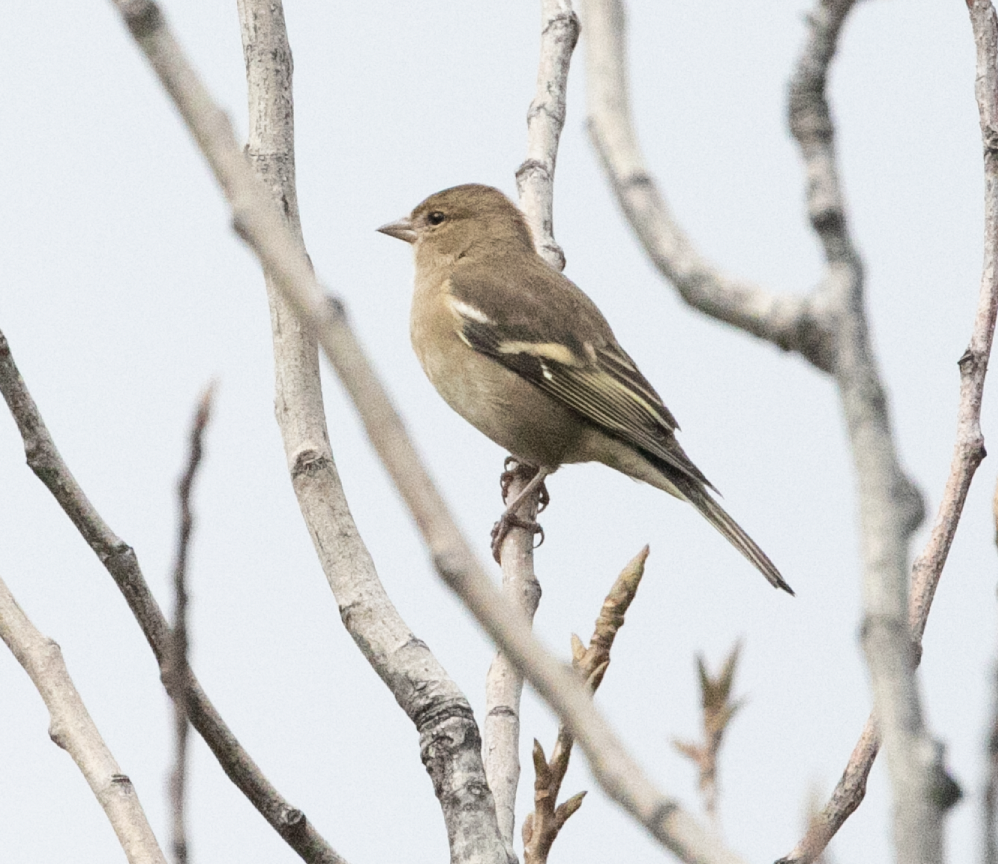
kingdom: Animalia
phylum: Chordata
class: Aves
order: Passeriformes
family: Fringillidae
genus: Fringilla
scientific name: Fringilla coelebs
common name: Common chaffinch
